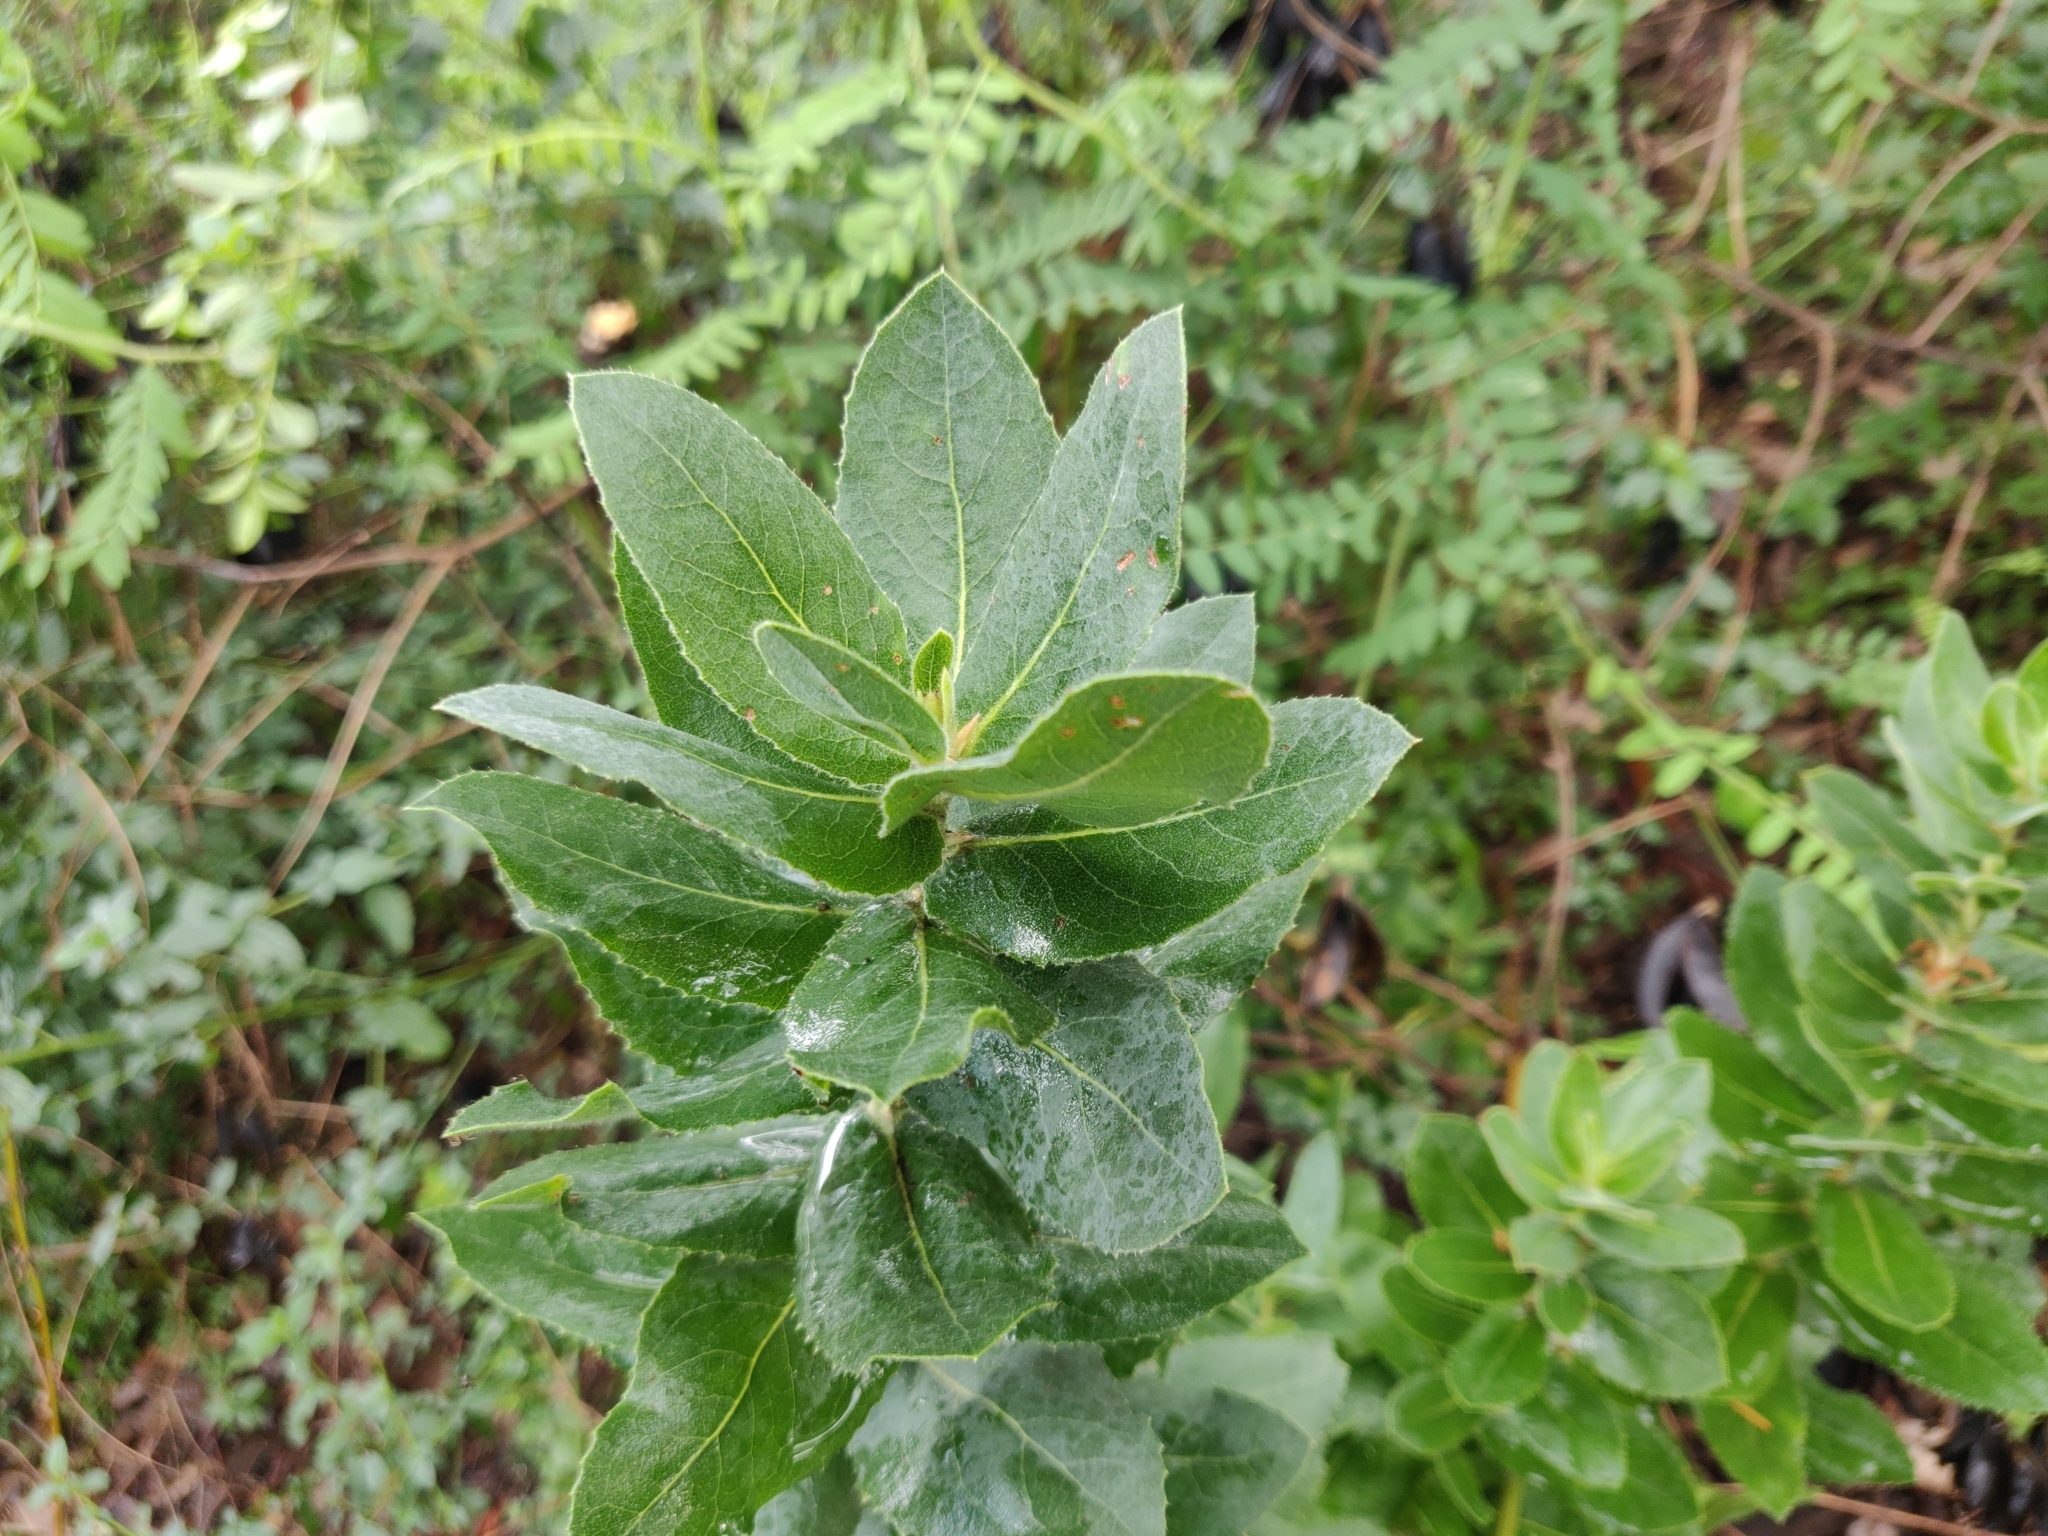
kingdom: Plantae
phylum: Tracheophyta
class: Magnoliopsida
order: Ericales
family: Ericaceae
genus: Arctostaphylos
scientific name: Arctostaphylos andersonii
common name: Santa cruz manzanita
